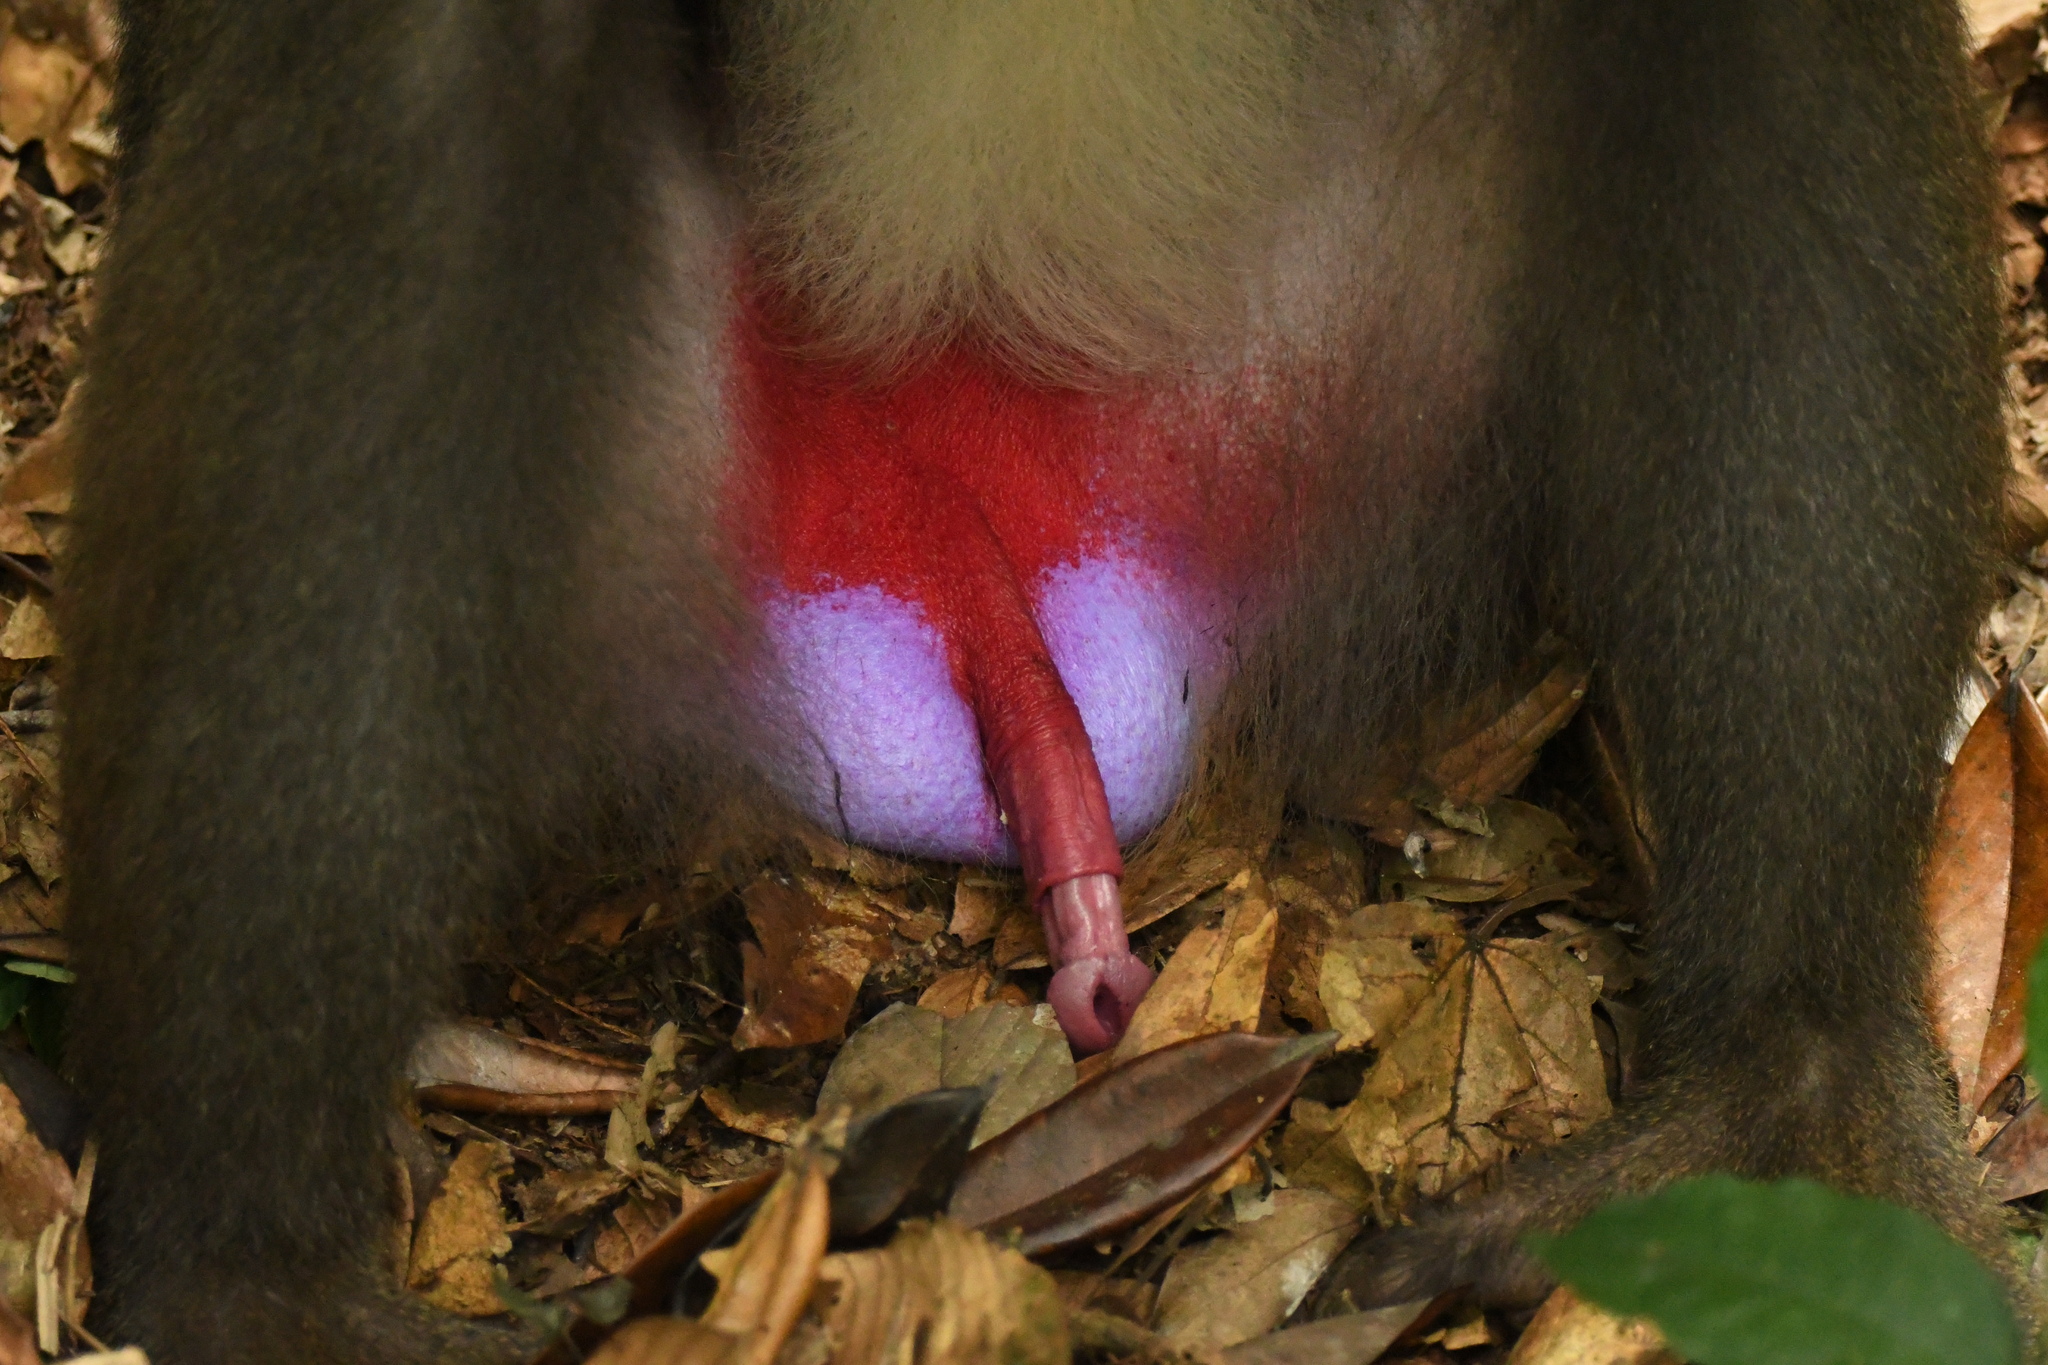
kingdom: Animalia
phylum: Chordata
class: Mammalia
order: Primates
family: Cercopithecidae
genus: Mandrillus
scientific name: Mandrillus sphinx
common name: Mandrill
